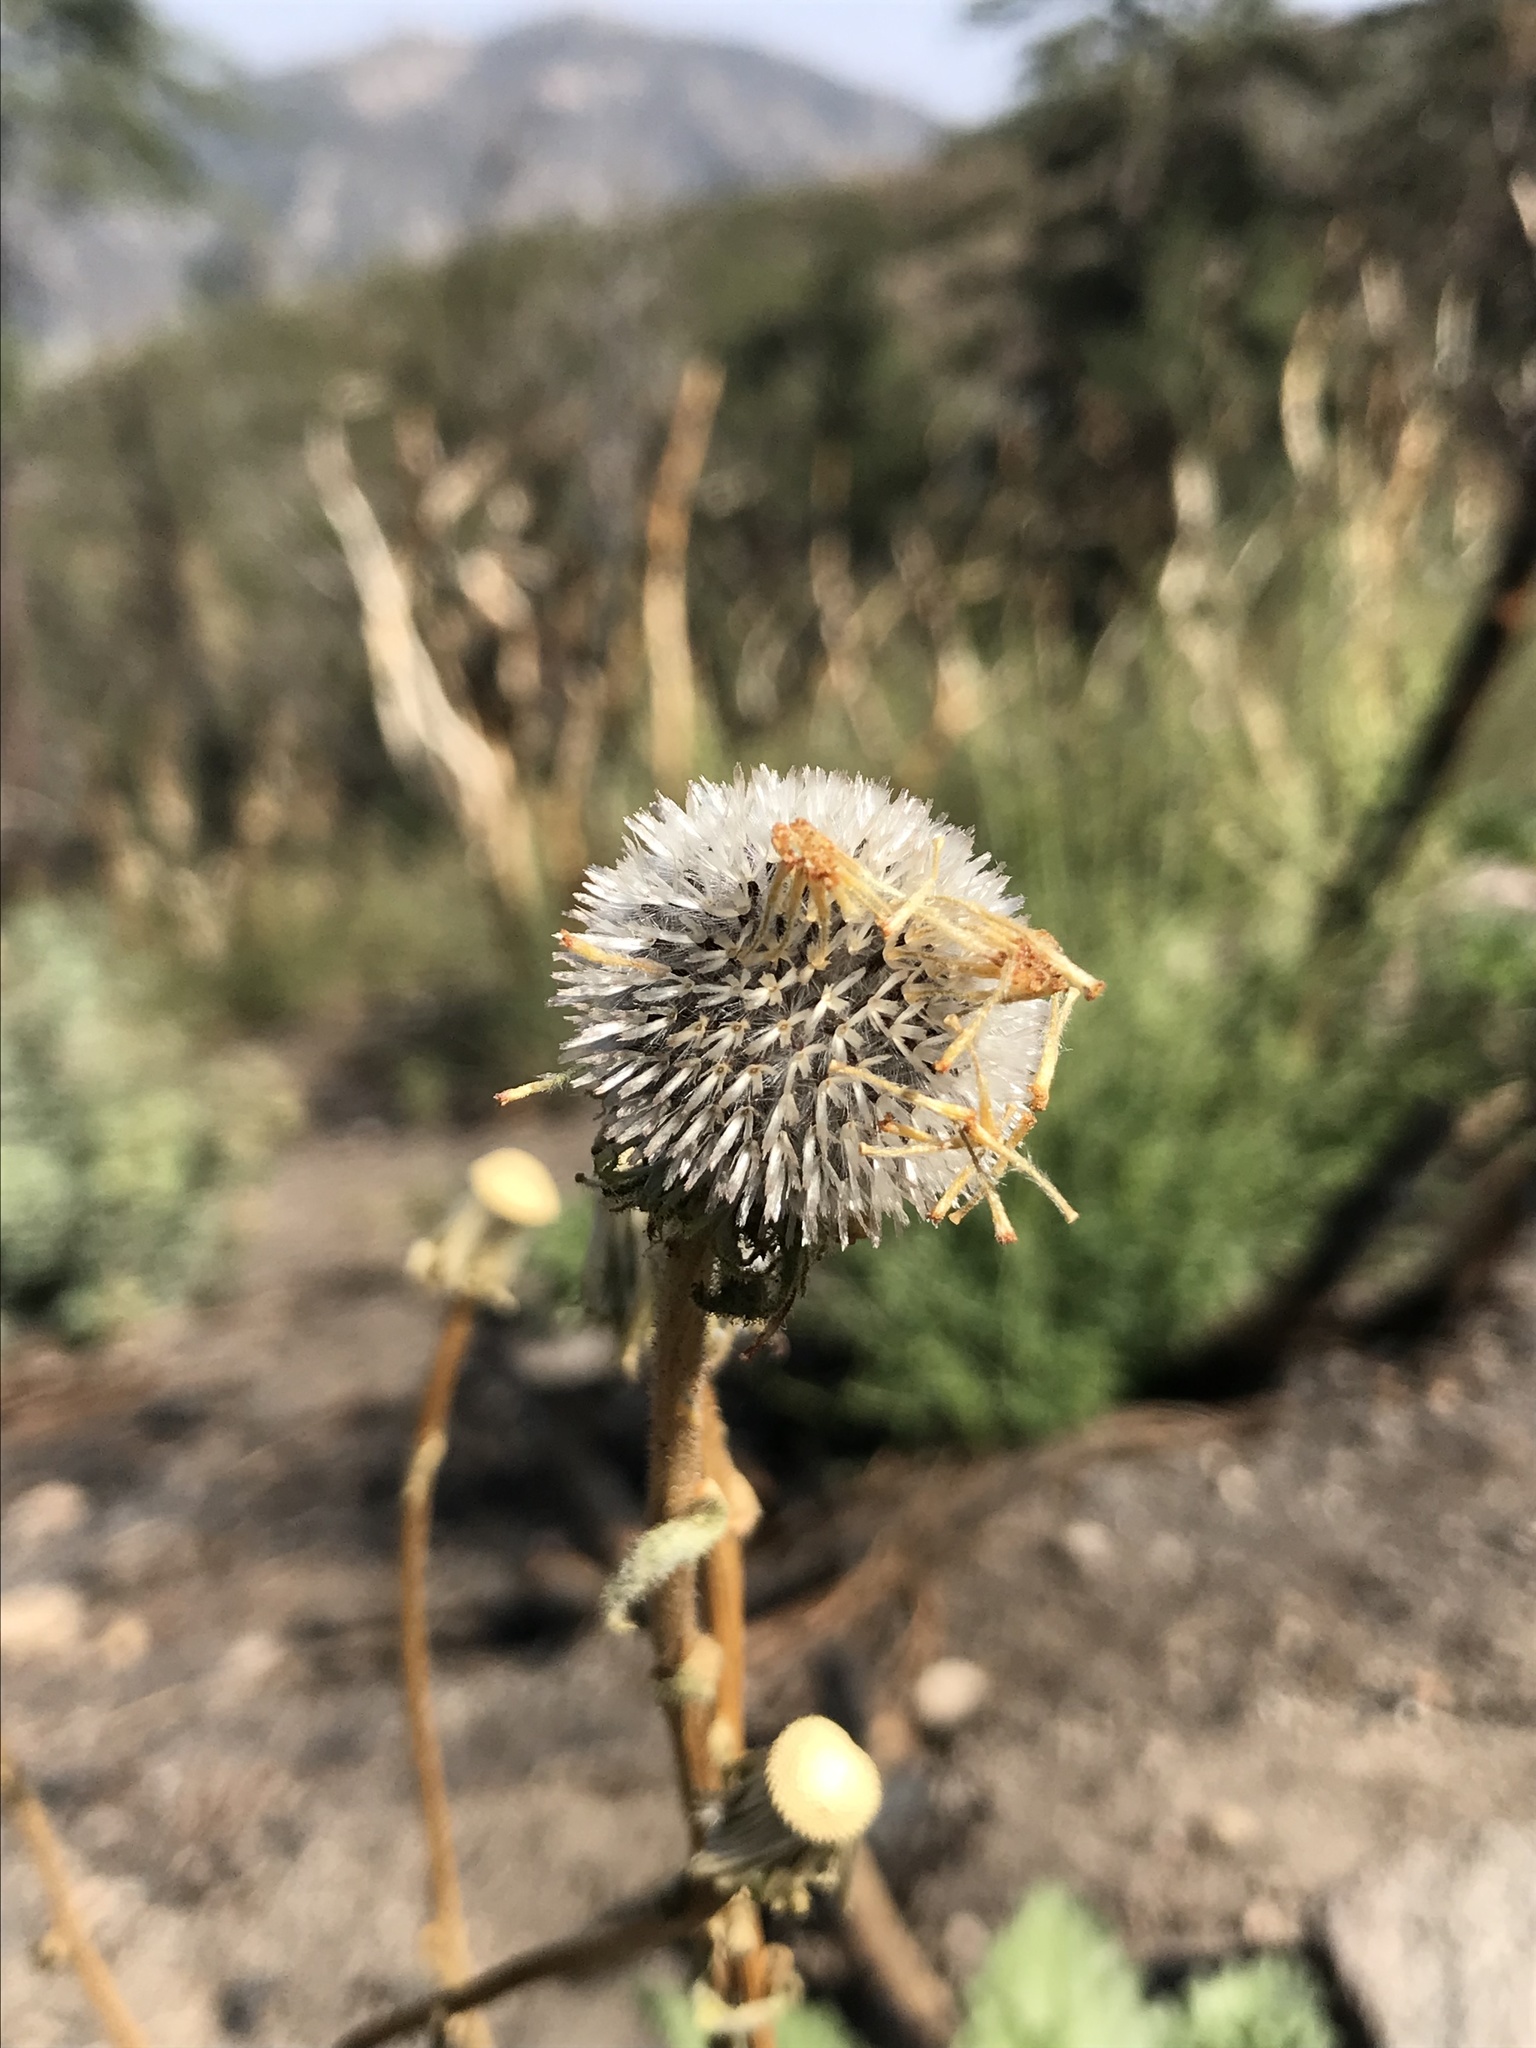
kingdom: Plantae
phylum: Tracheophyta
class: Magnoliopsida
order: Asterales
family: Asteraceae
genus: Hulsea
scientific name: Hulsea heterochroma
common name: Redray alpinegold
